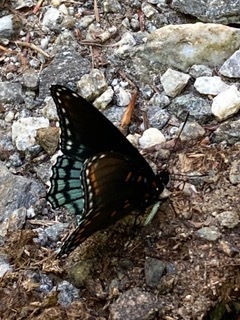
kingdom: Animalia
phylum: Arthropoda
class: Insecta
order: Lepidoptera
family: Nymphalidae
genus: Limenitis
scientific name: Limenitis astyanax
